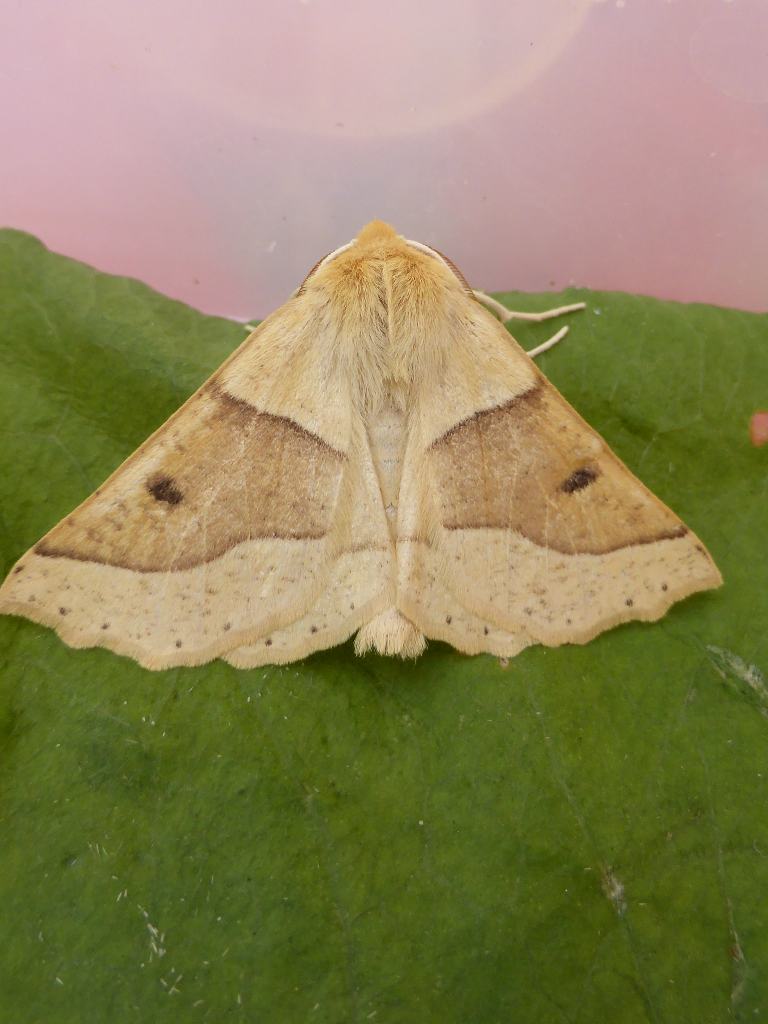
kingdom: Animalia
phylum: Arthropoda
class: Insecta
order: Lepidoptera
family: Geometridae
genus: Crocallis
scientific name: Crocallis elinguaria
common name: Scalloped oak
